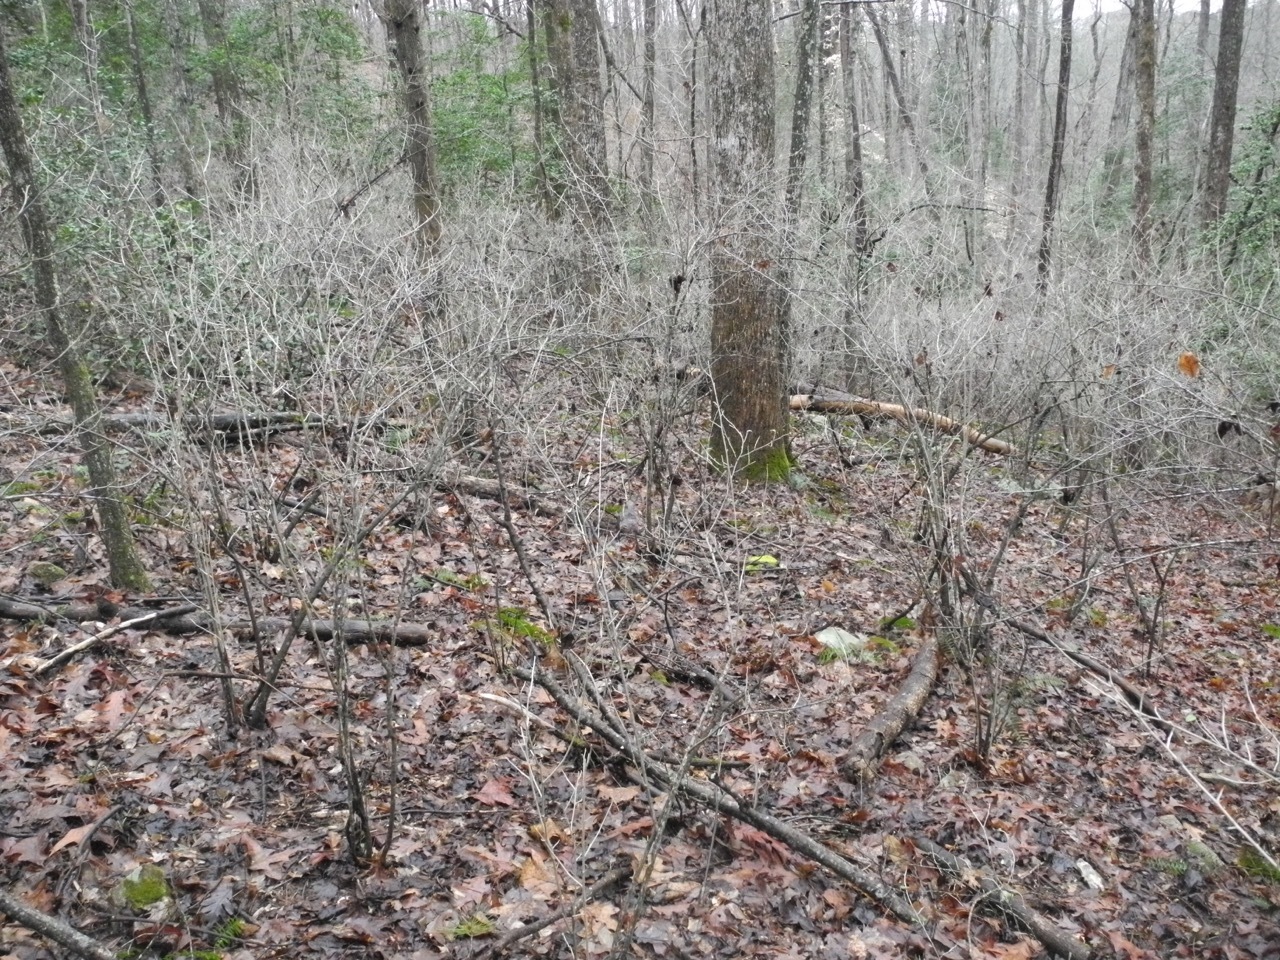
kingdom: Plantae
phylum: Tracheophyta
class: Magnoliopsida
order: Rosales
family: Elaeagnaceae
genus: Elaeagnus
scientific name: Elaeagnus umbellata
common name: Autumn olive
